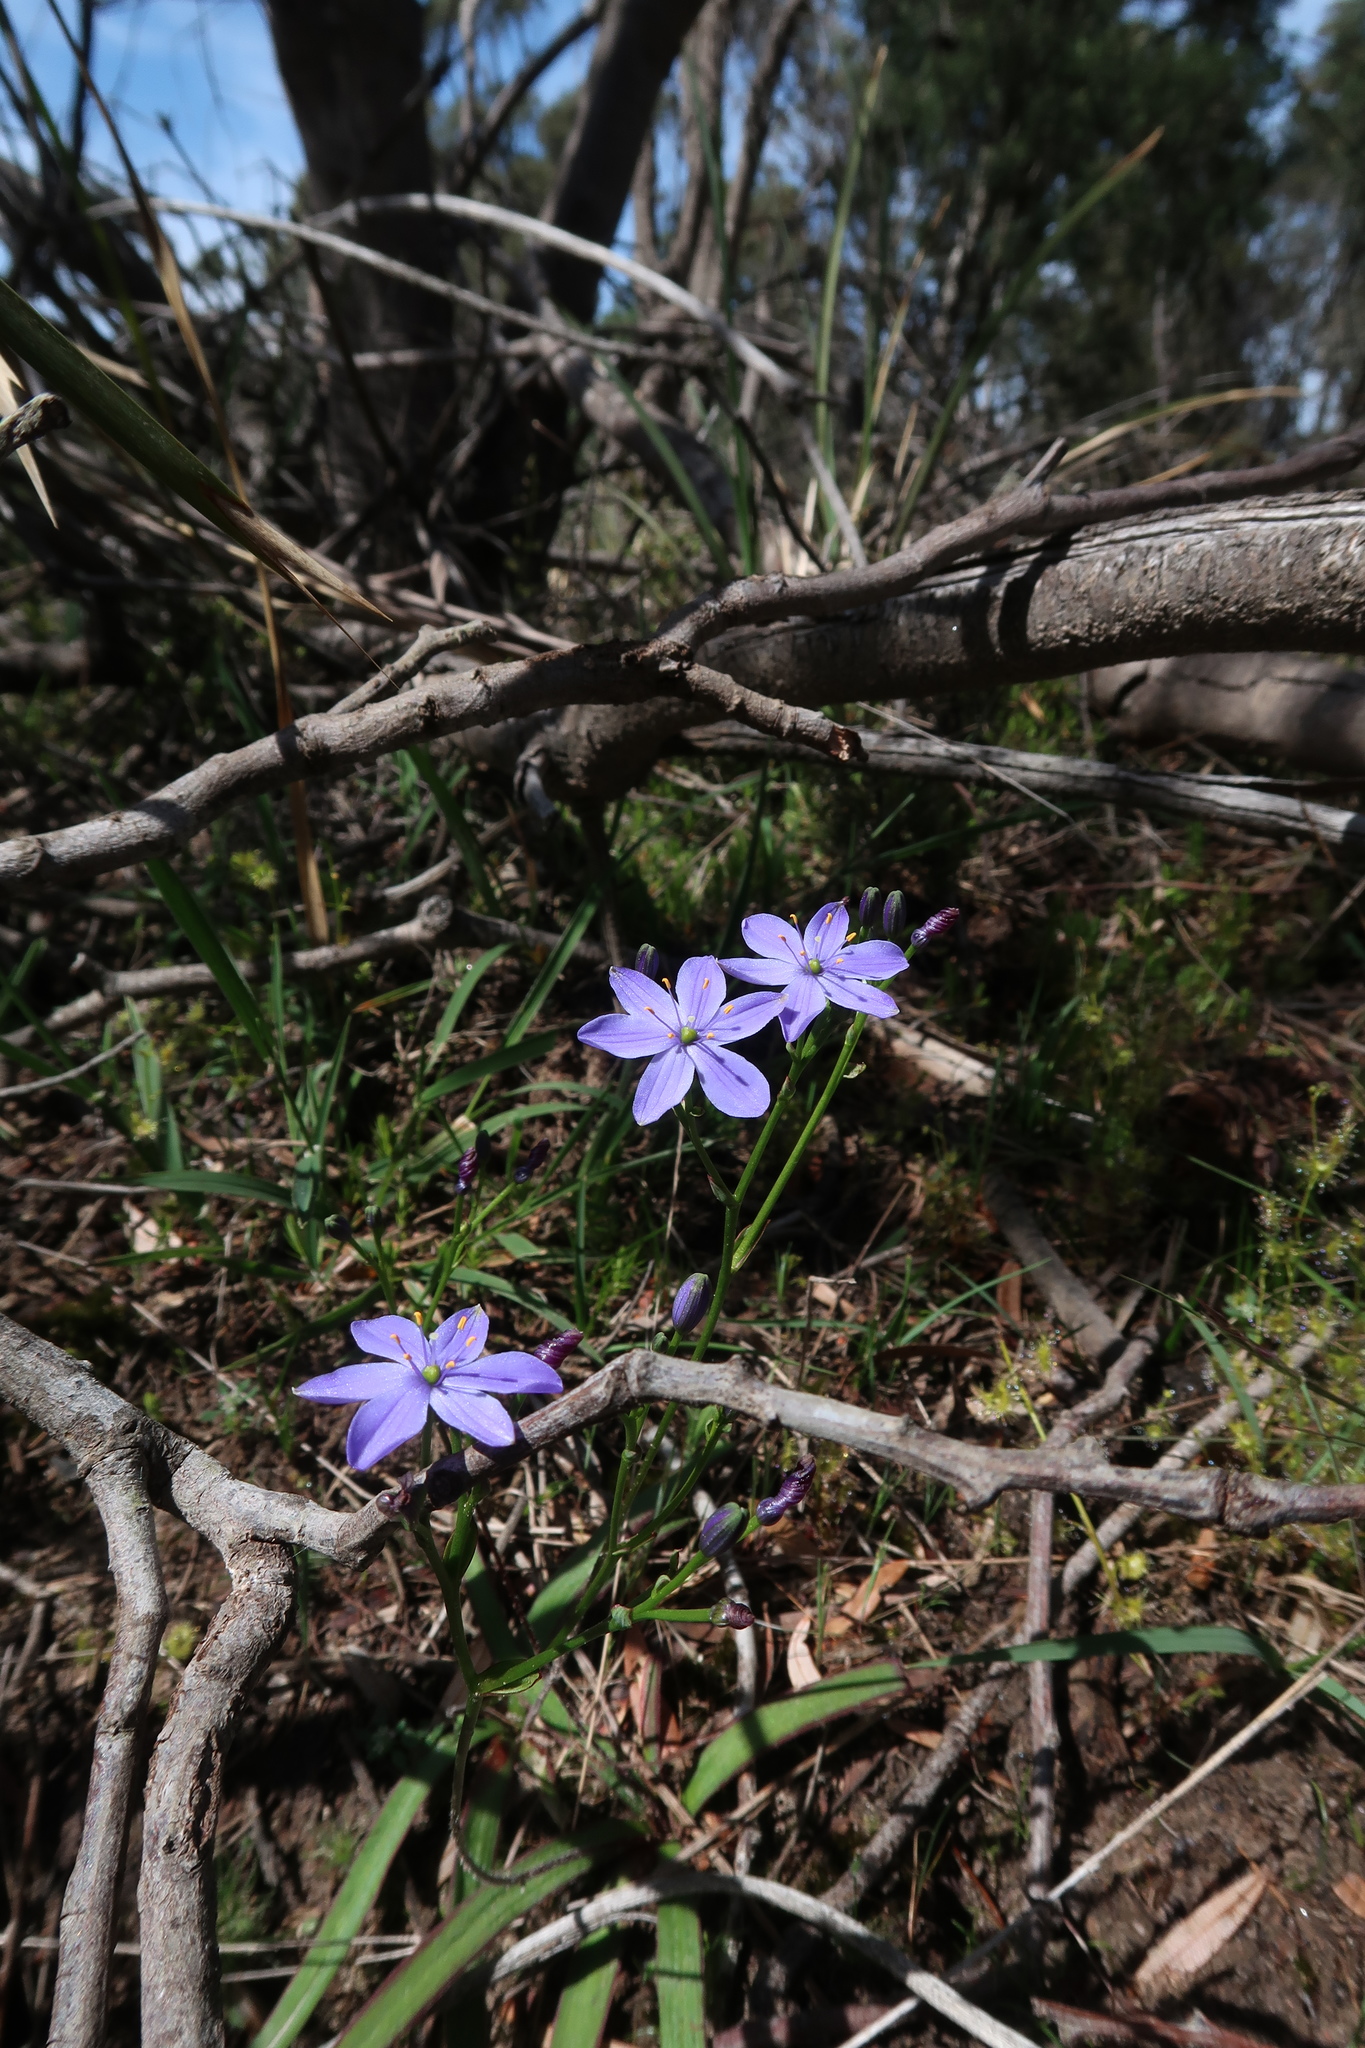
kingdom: Plantae
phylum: Tracheophyta
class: Liliopsida
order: Asparagales
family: Asphodelaceae
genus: Chamaescilla
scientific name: Chamaescilla corymbosa
